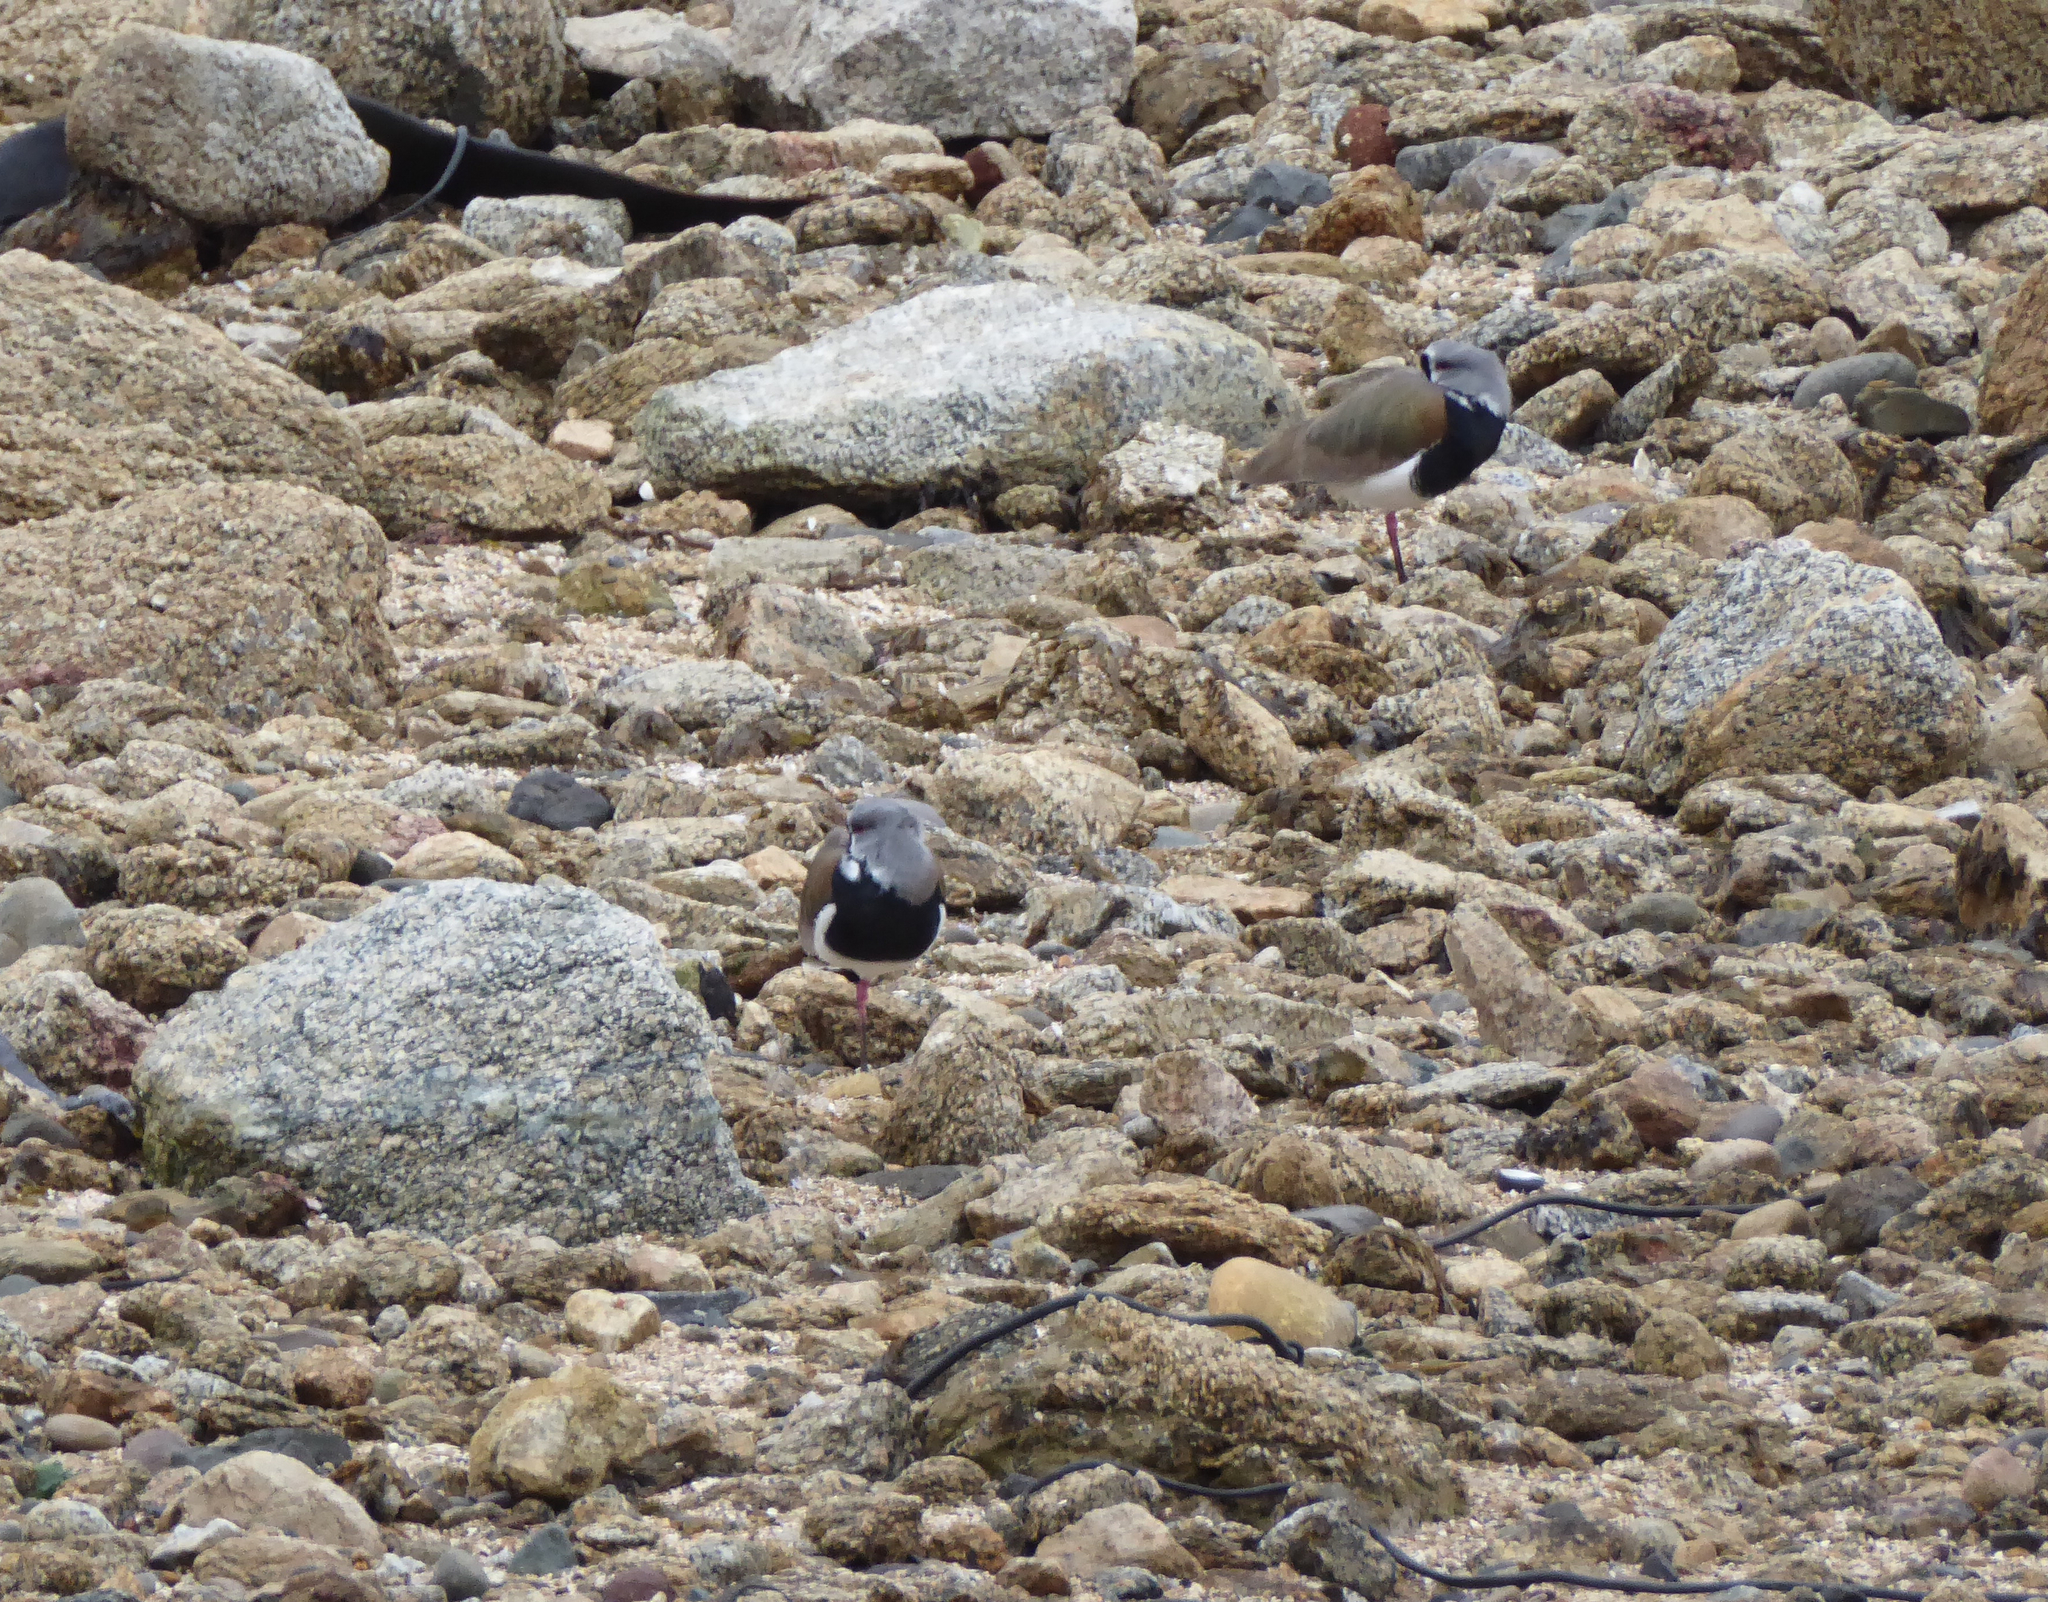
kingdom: Animalia
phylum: Chordata
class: Aves
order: Charadriiformes
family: Charadriidae
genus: Vanellus
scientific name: Vanellus chilensis
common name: Southern lapwing
